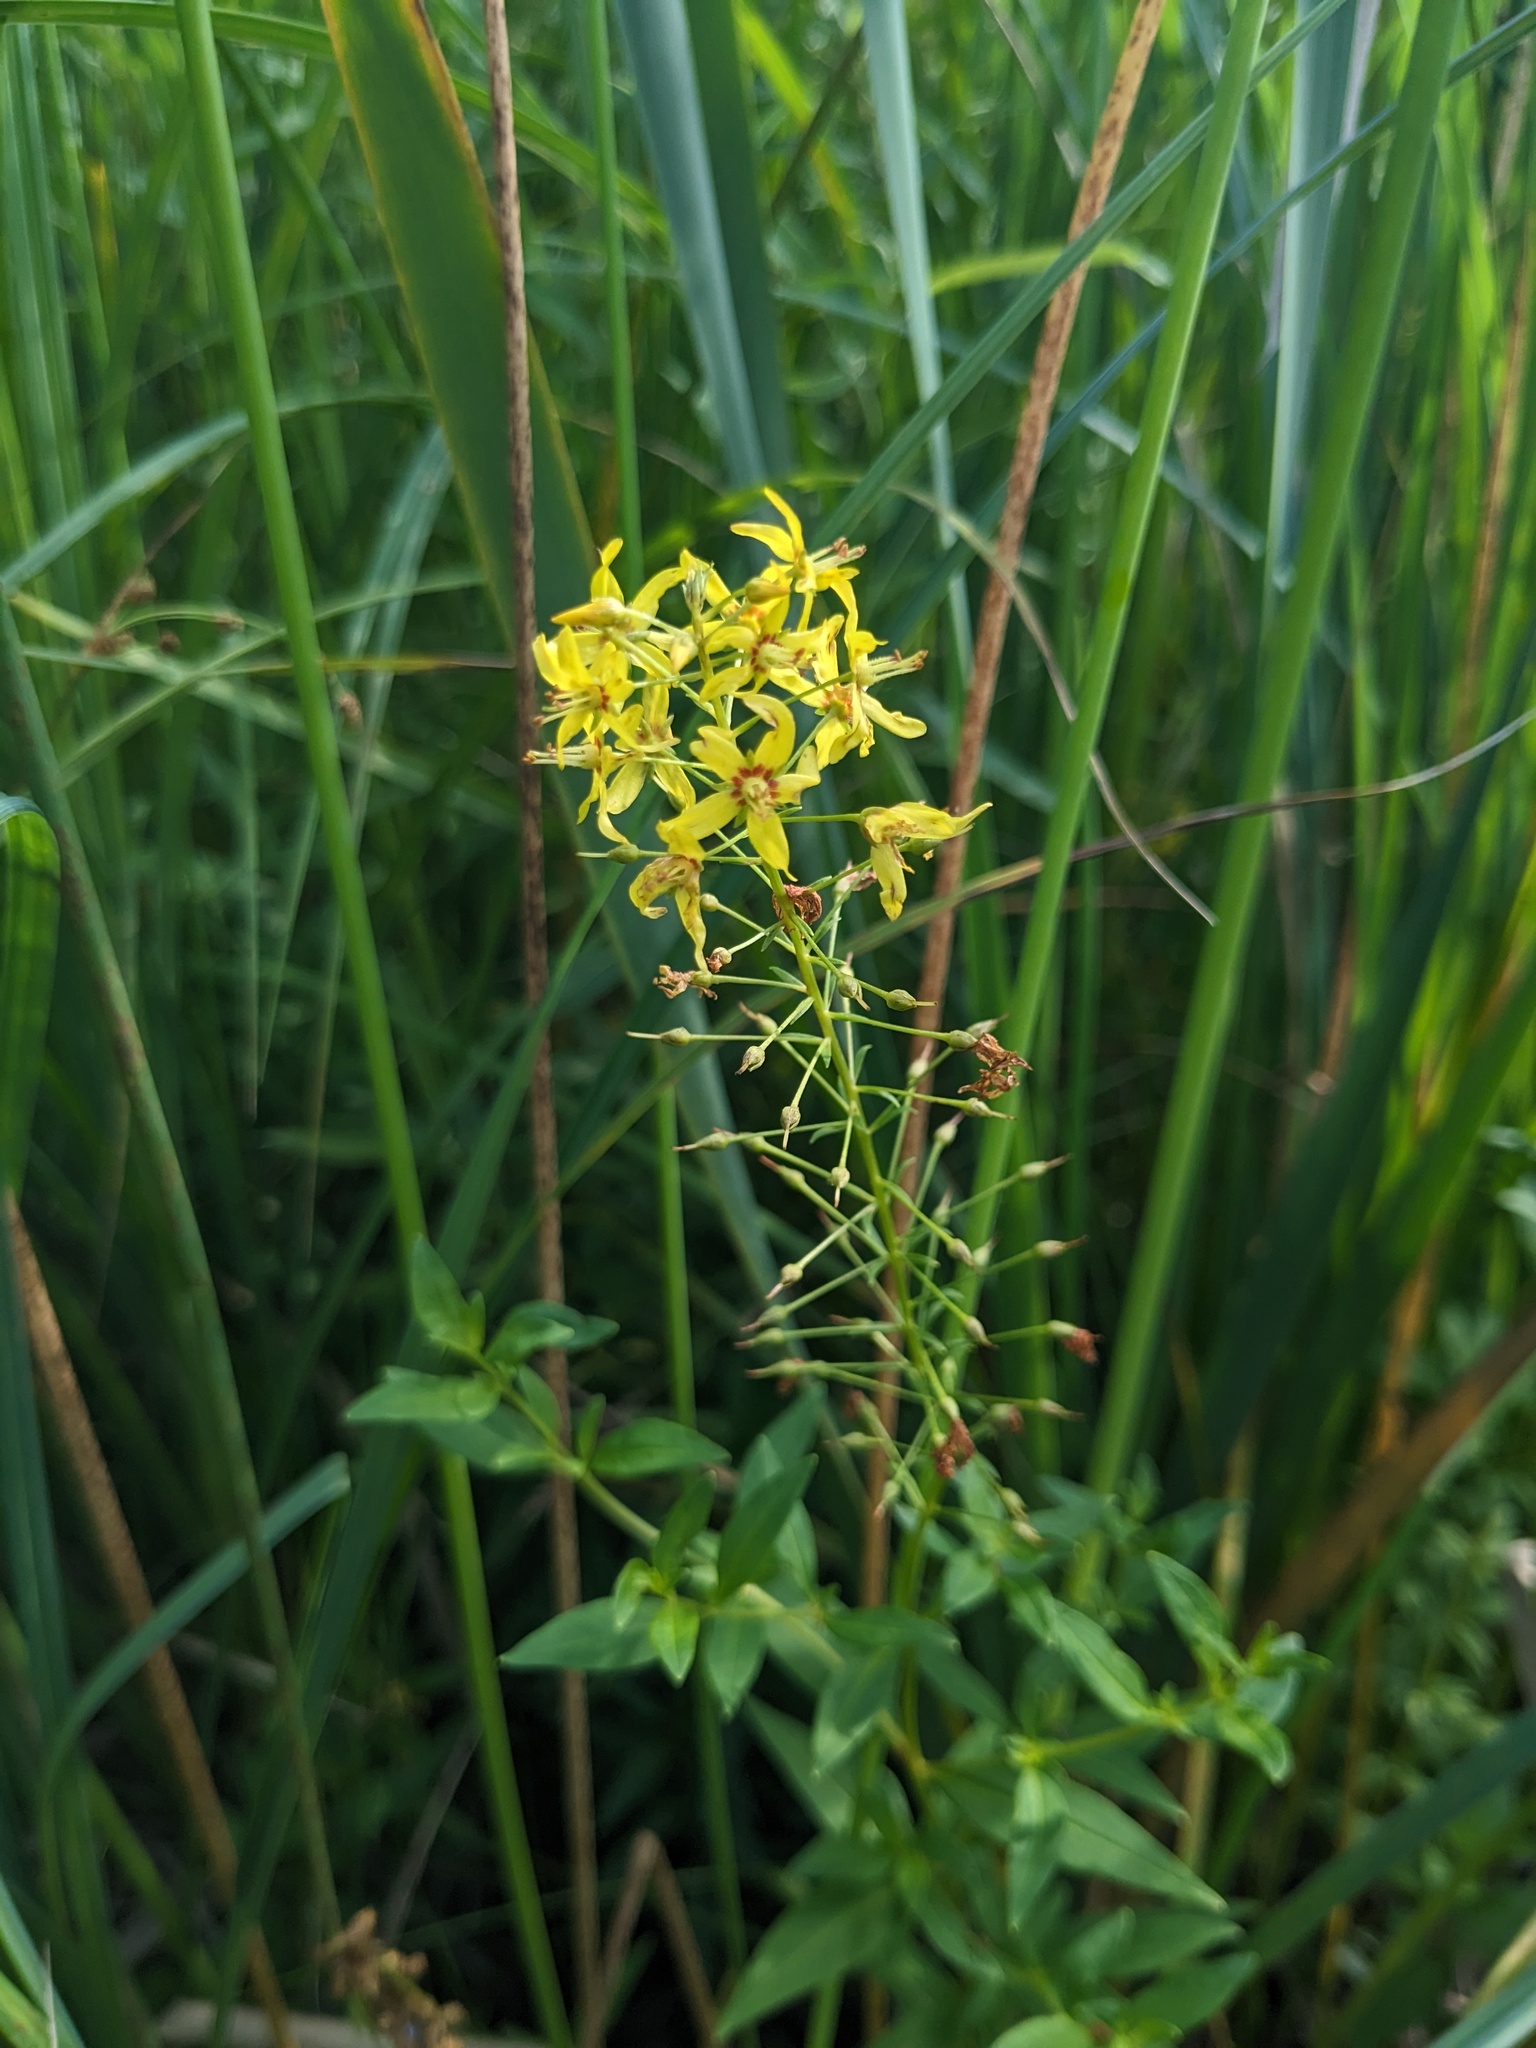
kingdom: Plantae
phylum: Tracheophyta
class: Magnoliopsida
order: Ericales
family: Primulaceae
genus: Lysimachia
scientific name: Lysimachia terrestris
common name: Lake loosestrife
